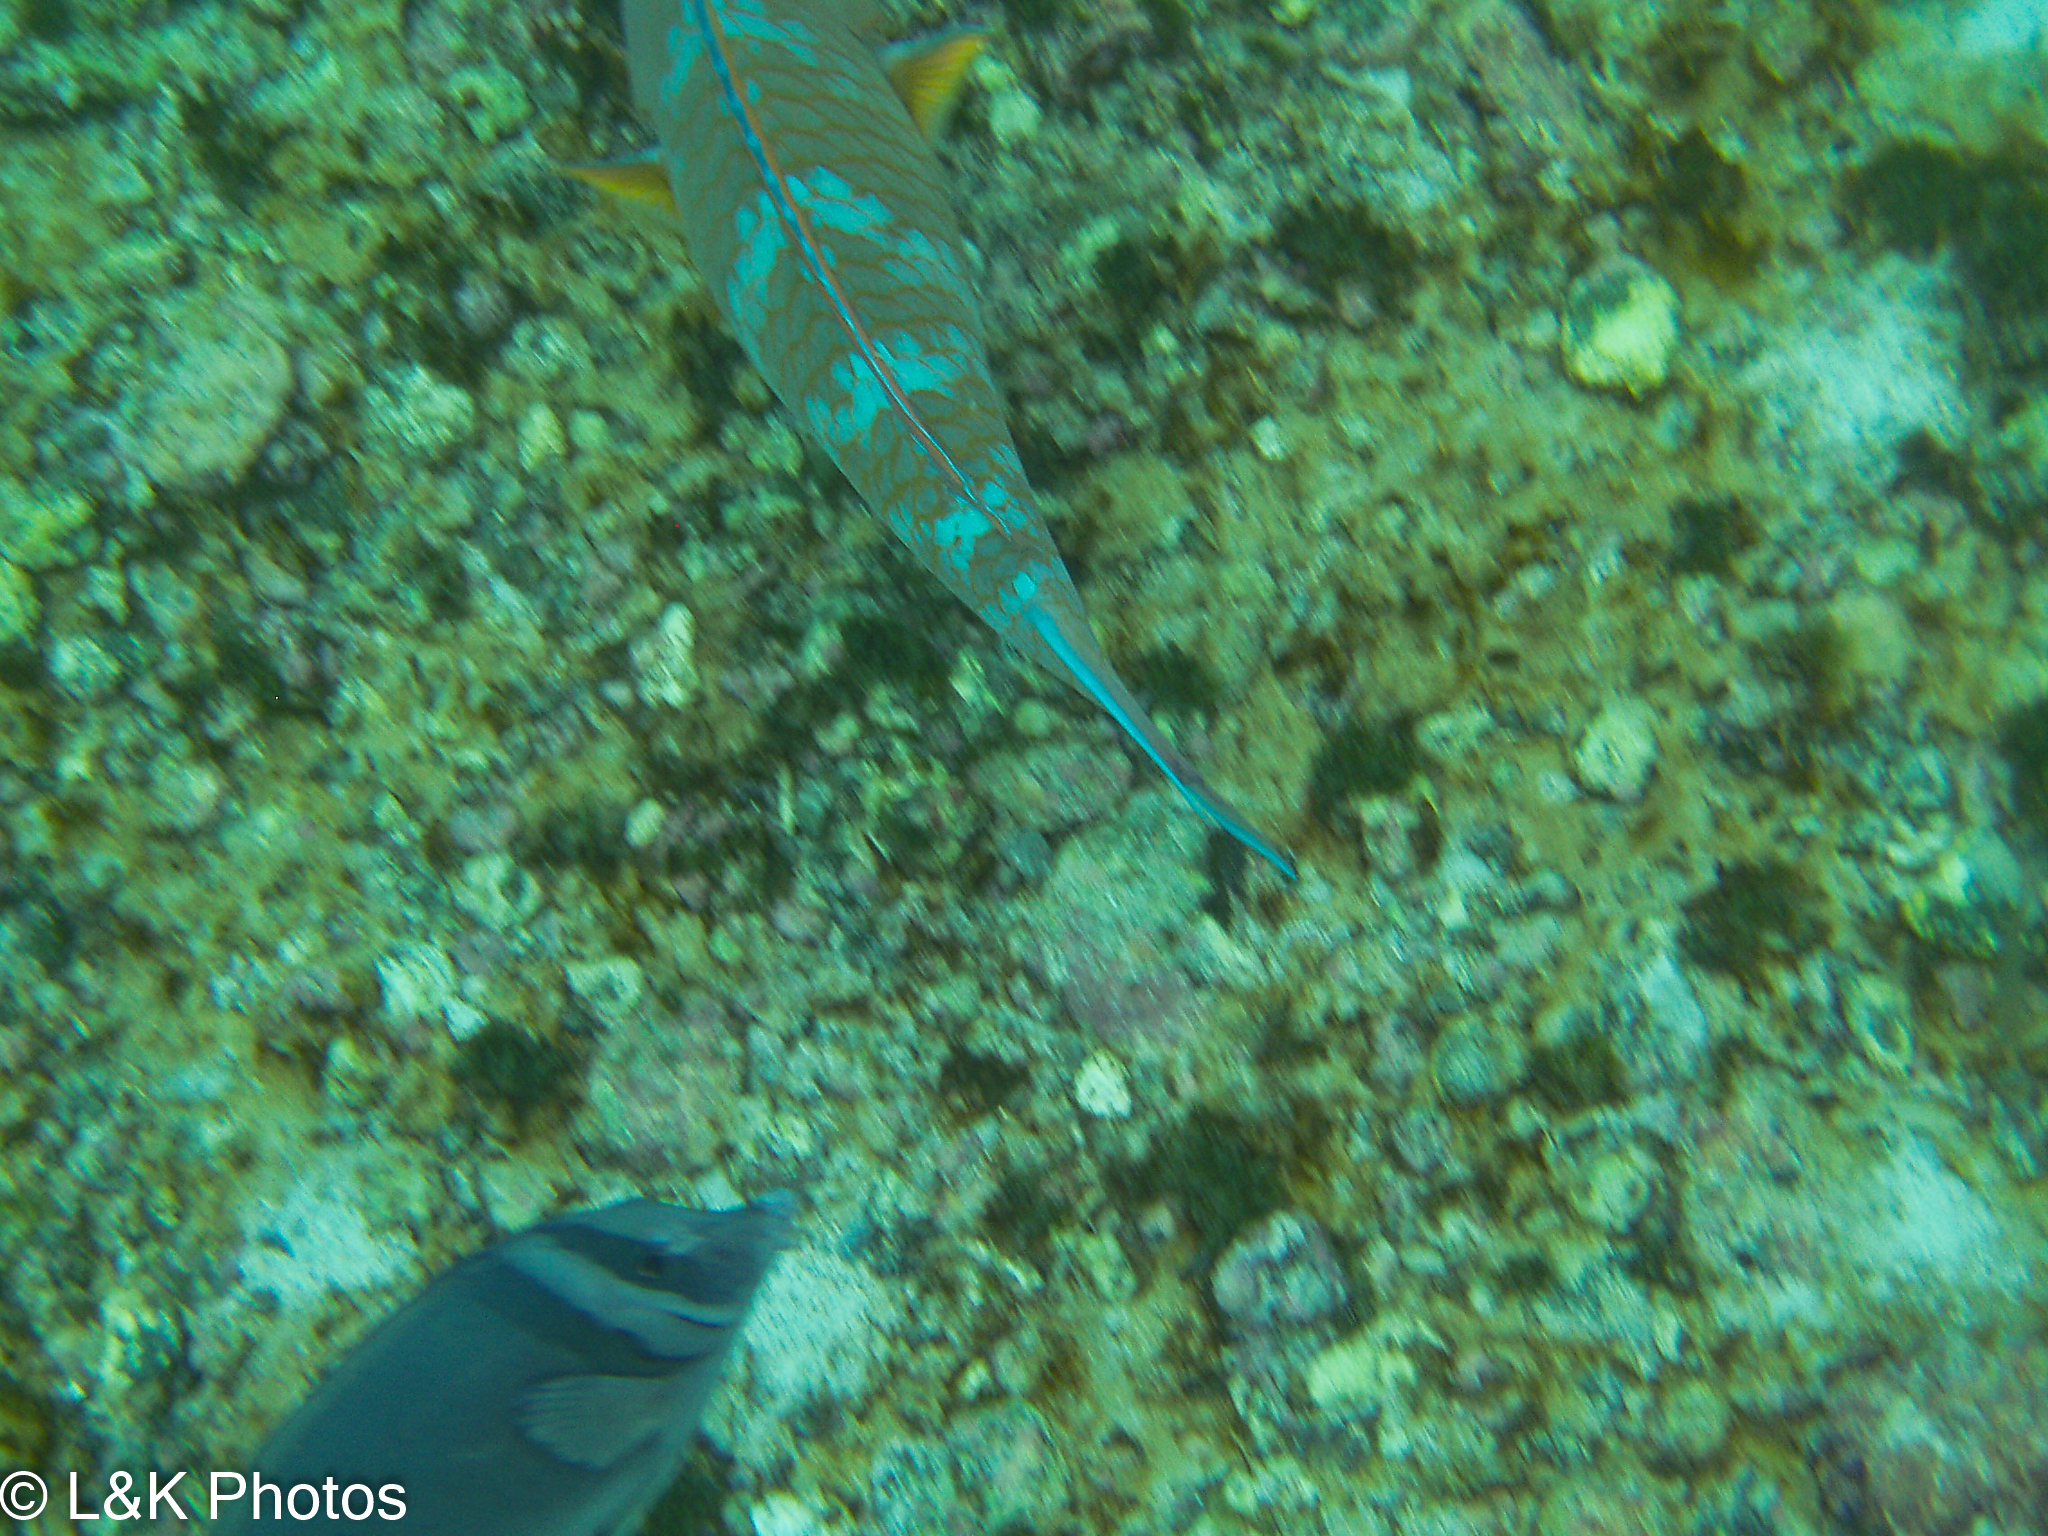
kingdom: Animalia
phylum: Chordata
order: Perciformes
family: Scaridae
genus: Scarus
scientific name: Scarus ghobban
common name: Blue-barred parrotfish
